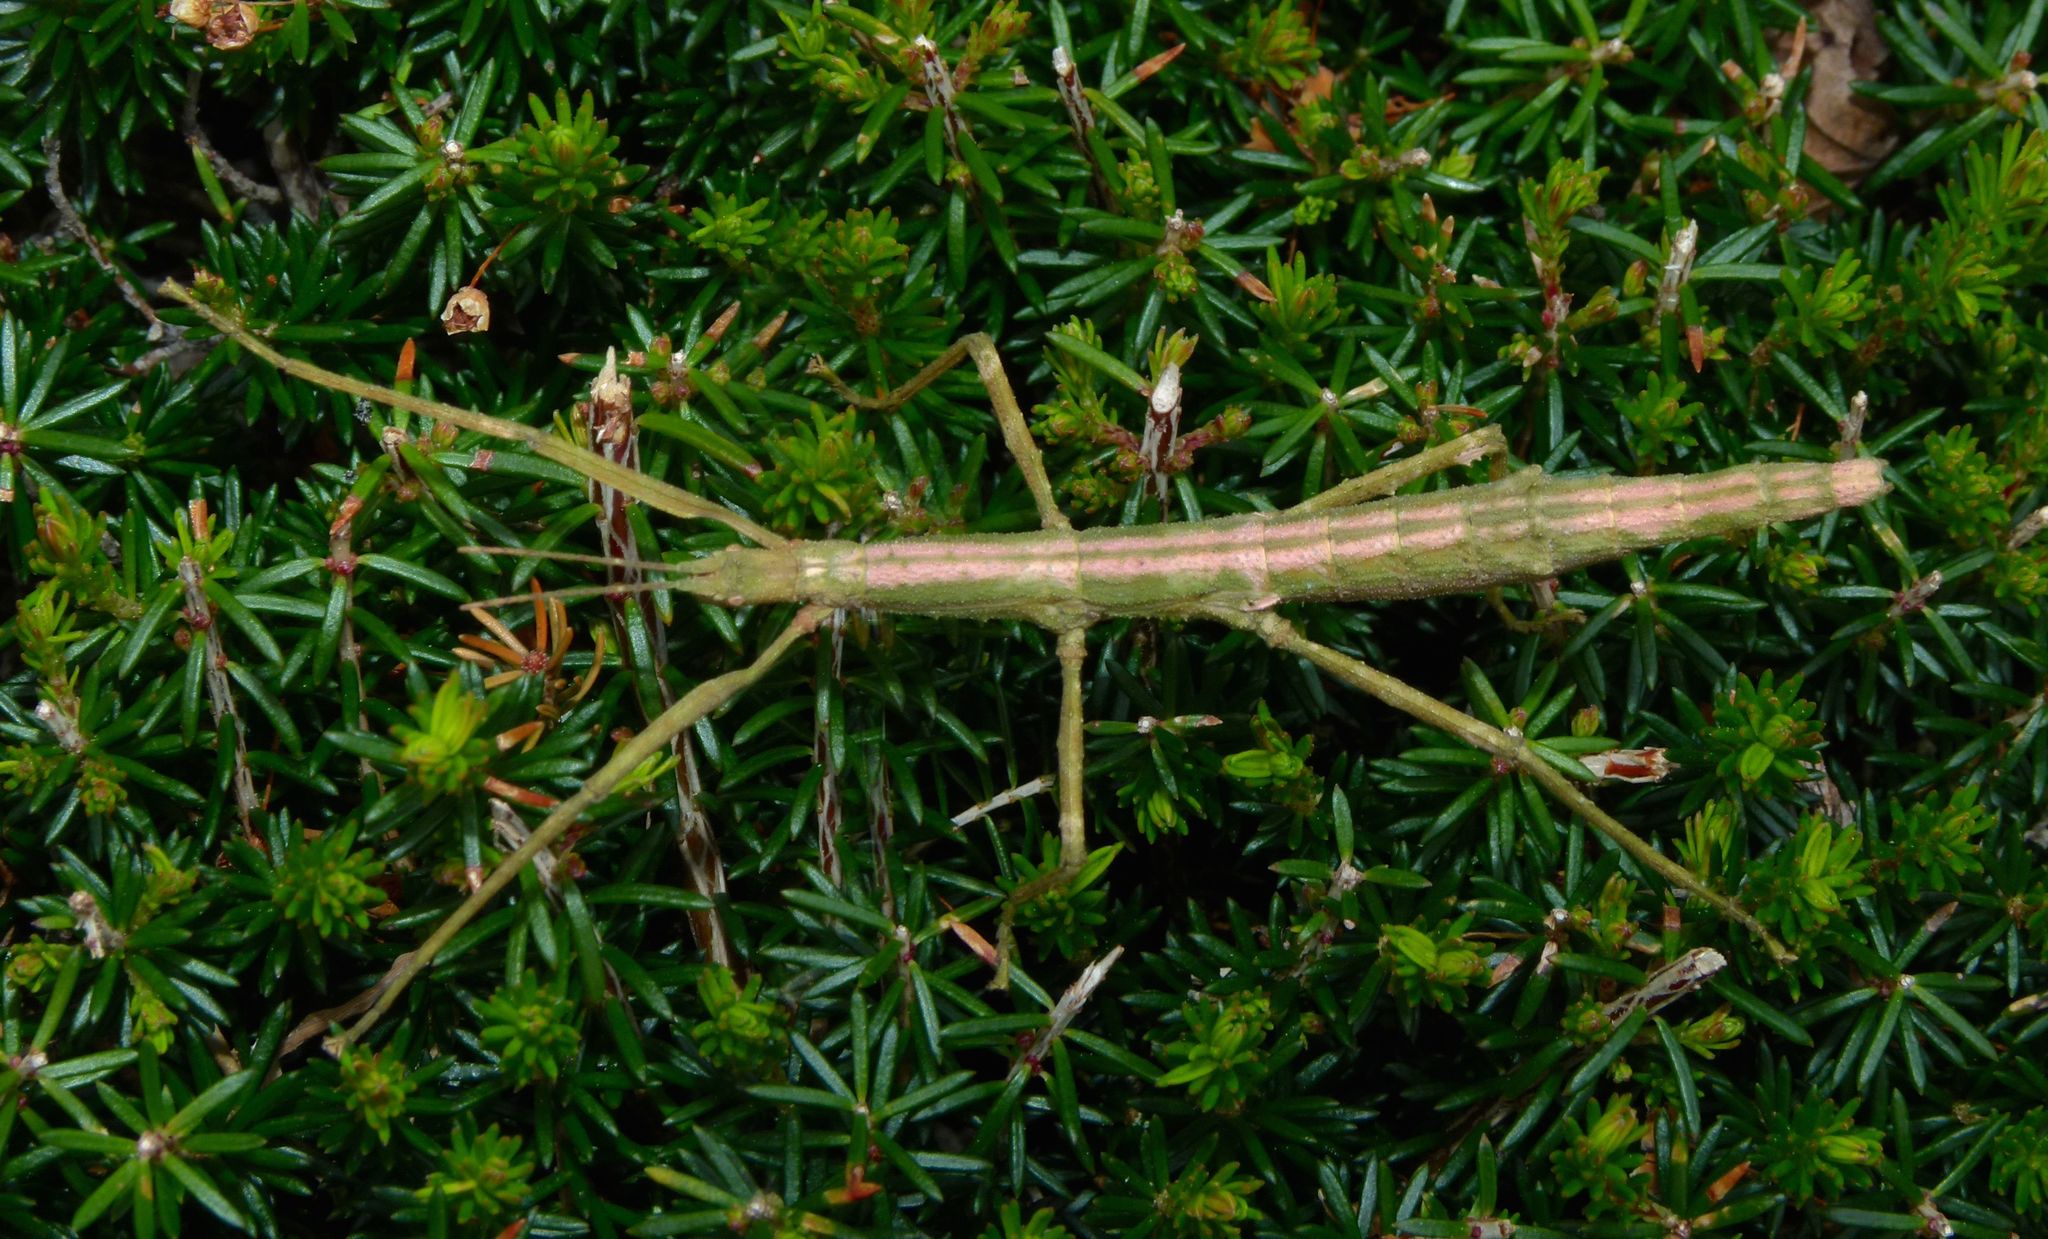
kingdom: Animalia
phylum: Arthropoda
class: Insecta
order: Phasmida
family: Phasmatidae
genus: Niveaphasma
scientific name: Niveaphasma annulatum
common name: Hutton's stick insect
